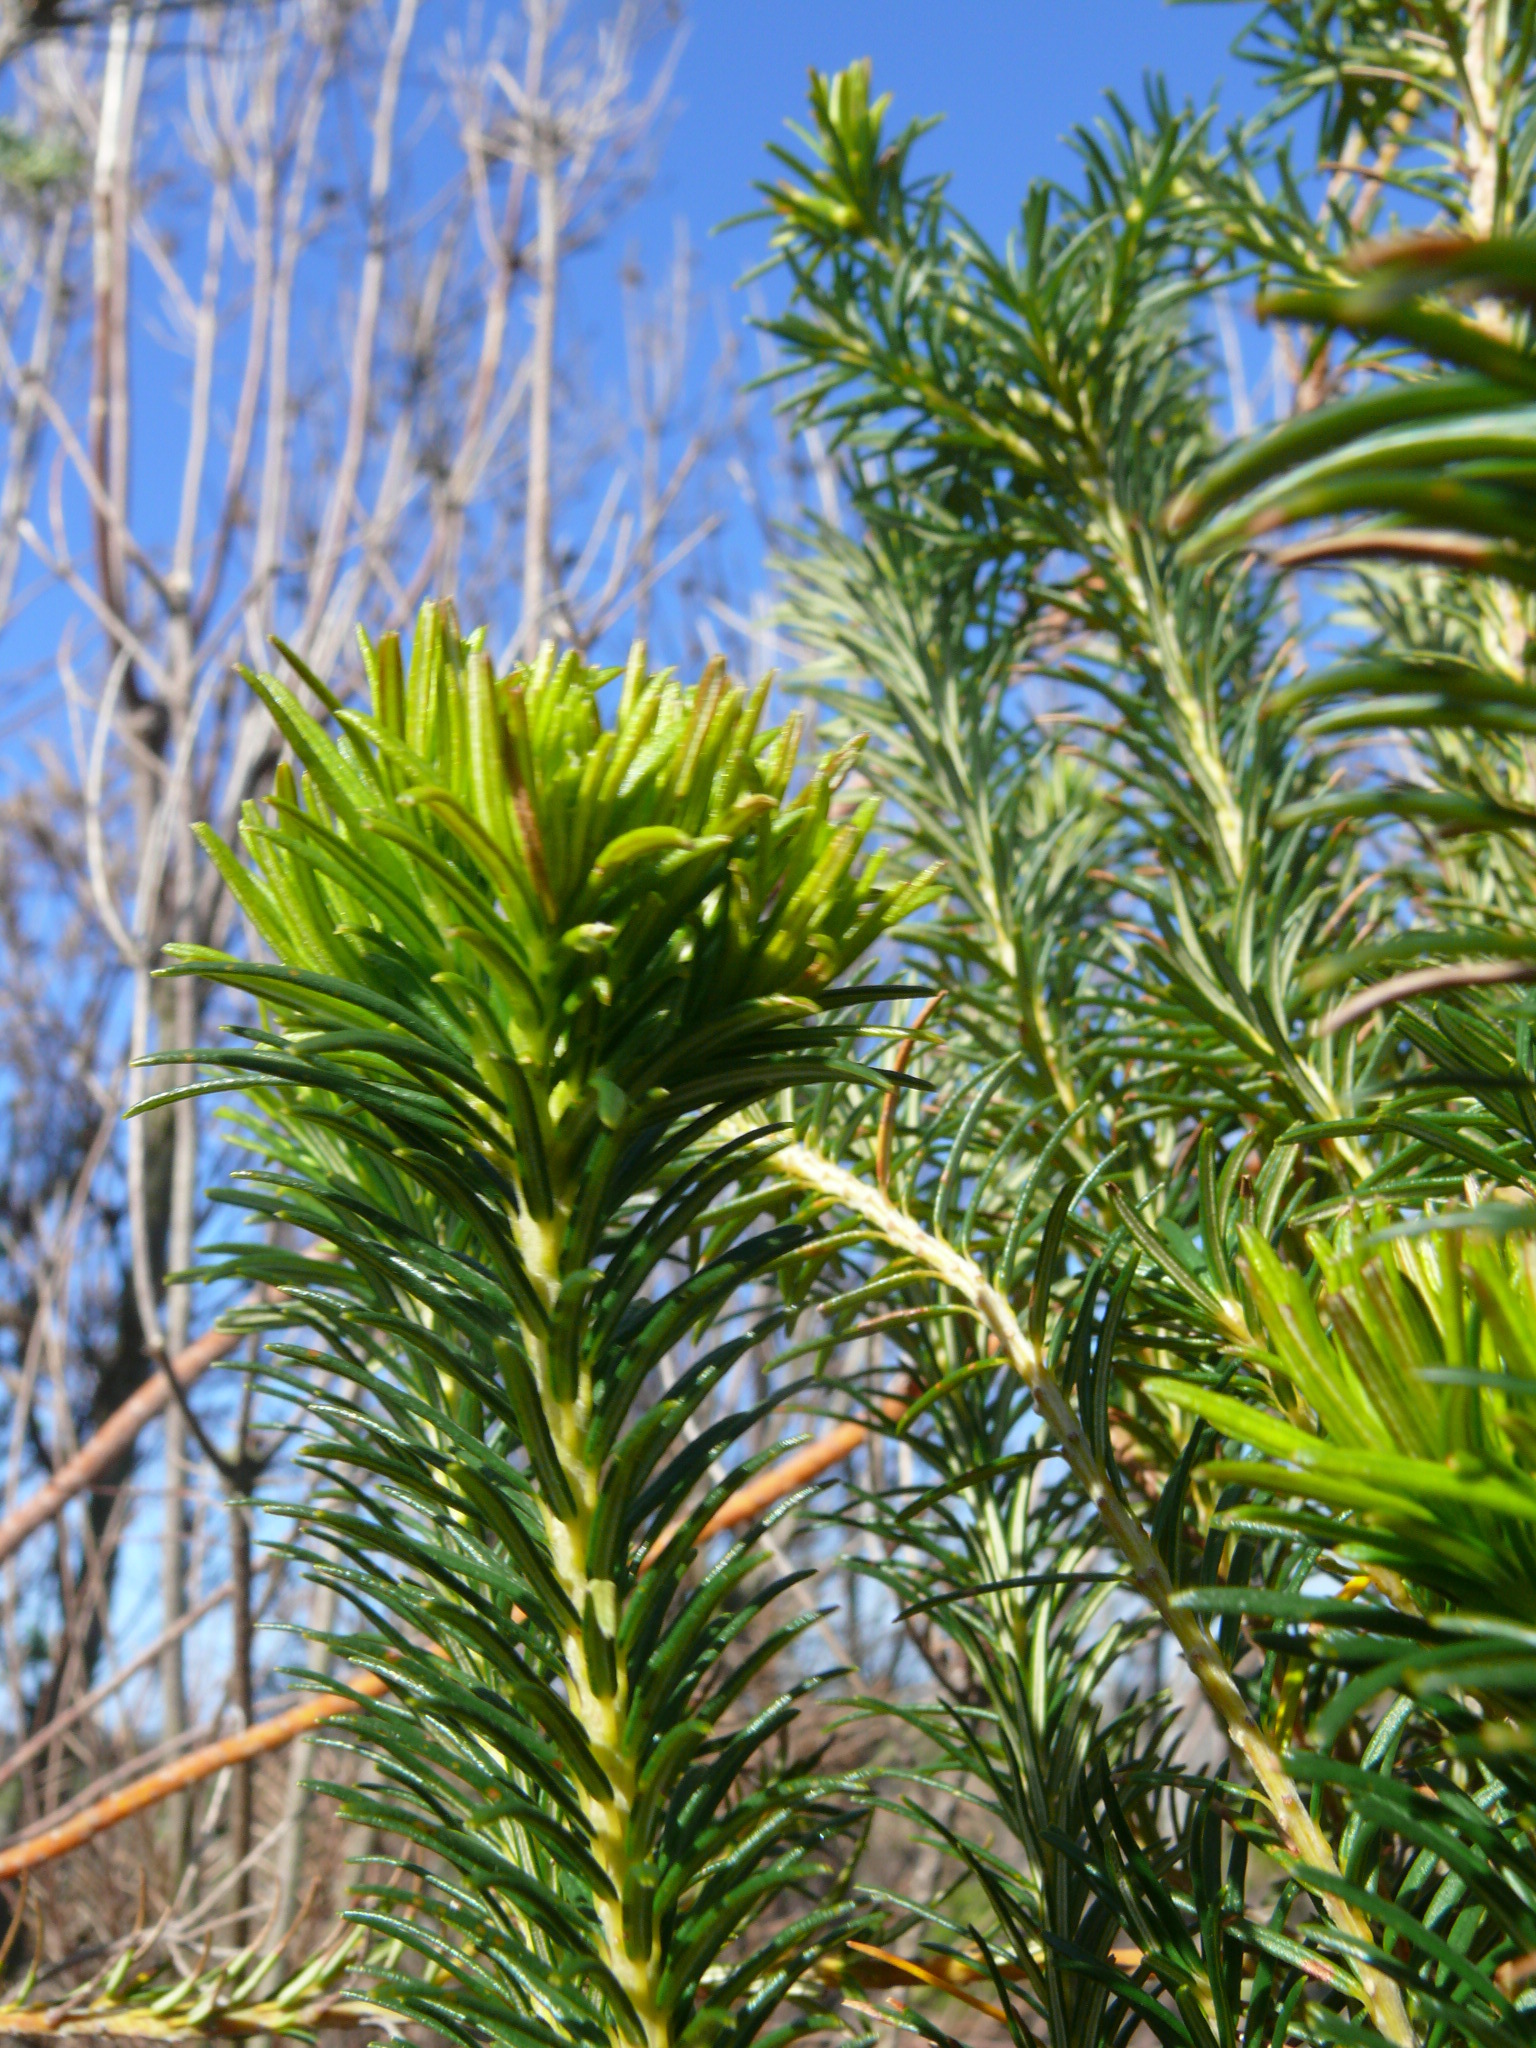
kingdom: Plantae
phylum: Tracheophyta
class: Magnoliopsida
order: Proteales
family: Proteaceae
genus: Banksia
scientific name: Banksia ericifolia
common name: Heath-leaf banksia
